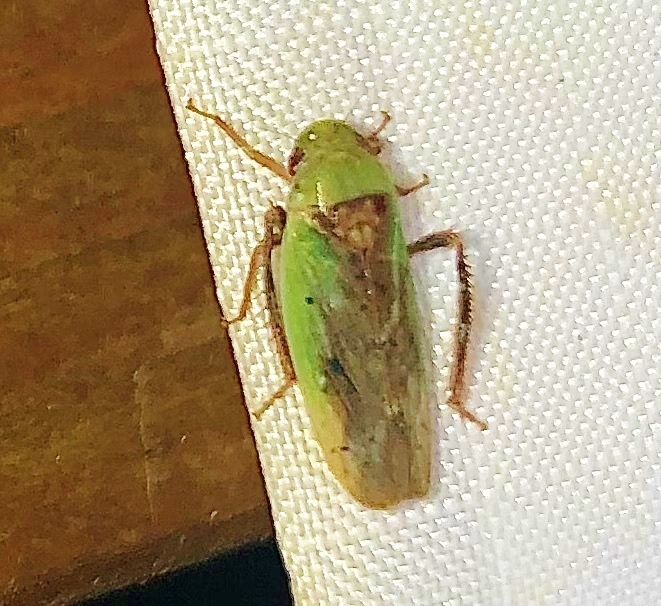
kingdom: Animalia
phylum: Arthropoda
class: Insecta
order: Hemiptera
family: Cicadellidae
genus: Ponana
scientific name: Ponana pectoralis
